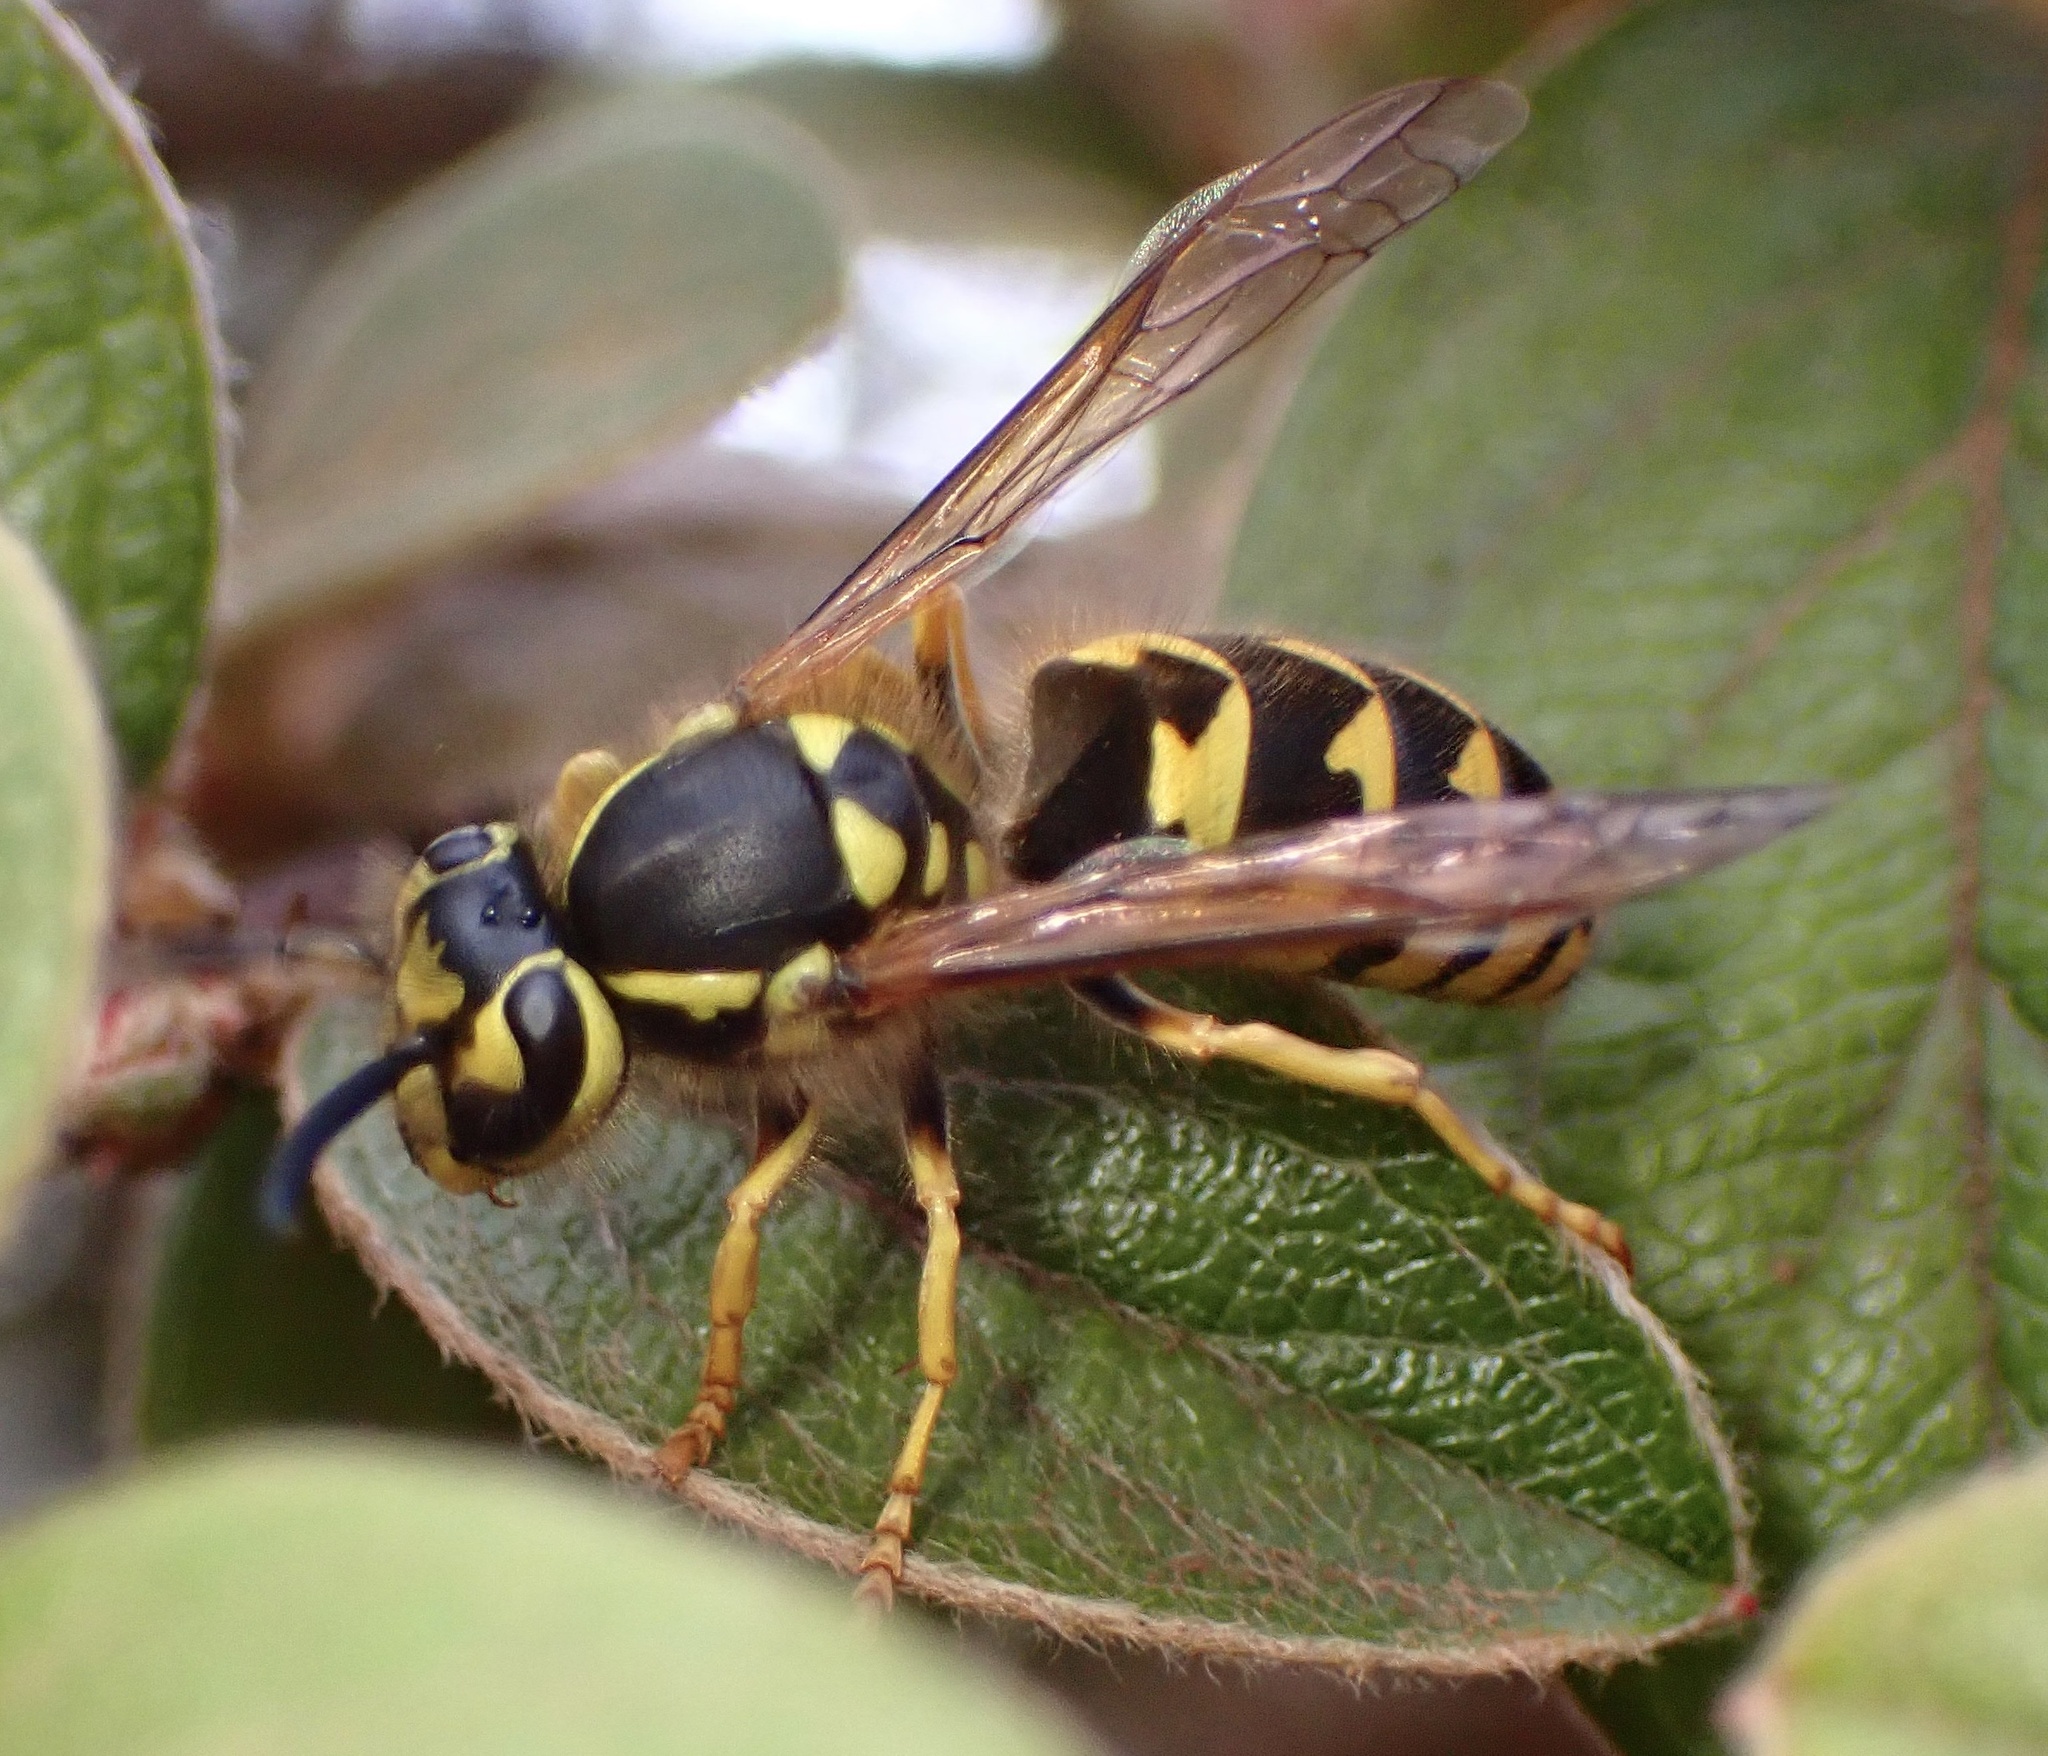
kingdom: Animalia
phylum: Arthropoda
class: Insecta
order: Hymenoptera
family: Vespidae
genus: Vespula
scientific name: Vespula pensylvanica
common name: Western yellowjacket
